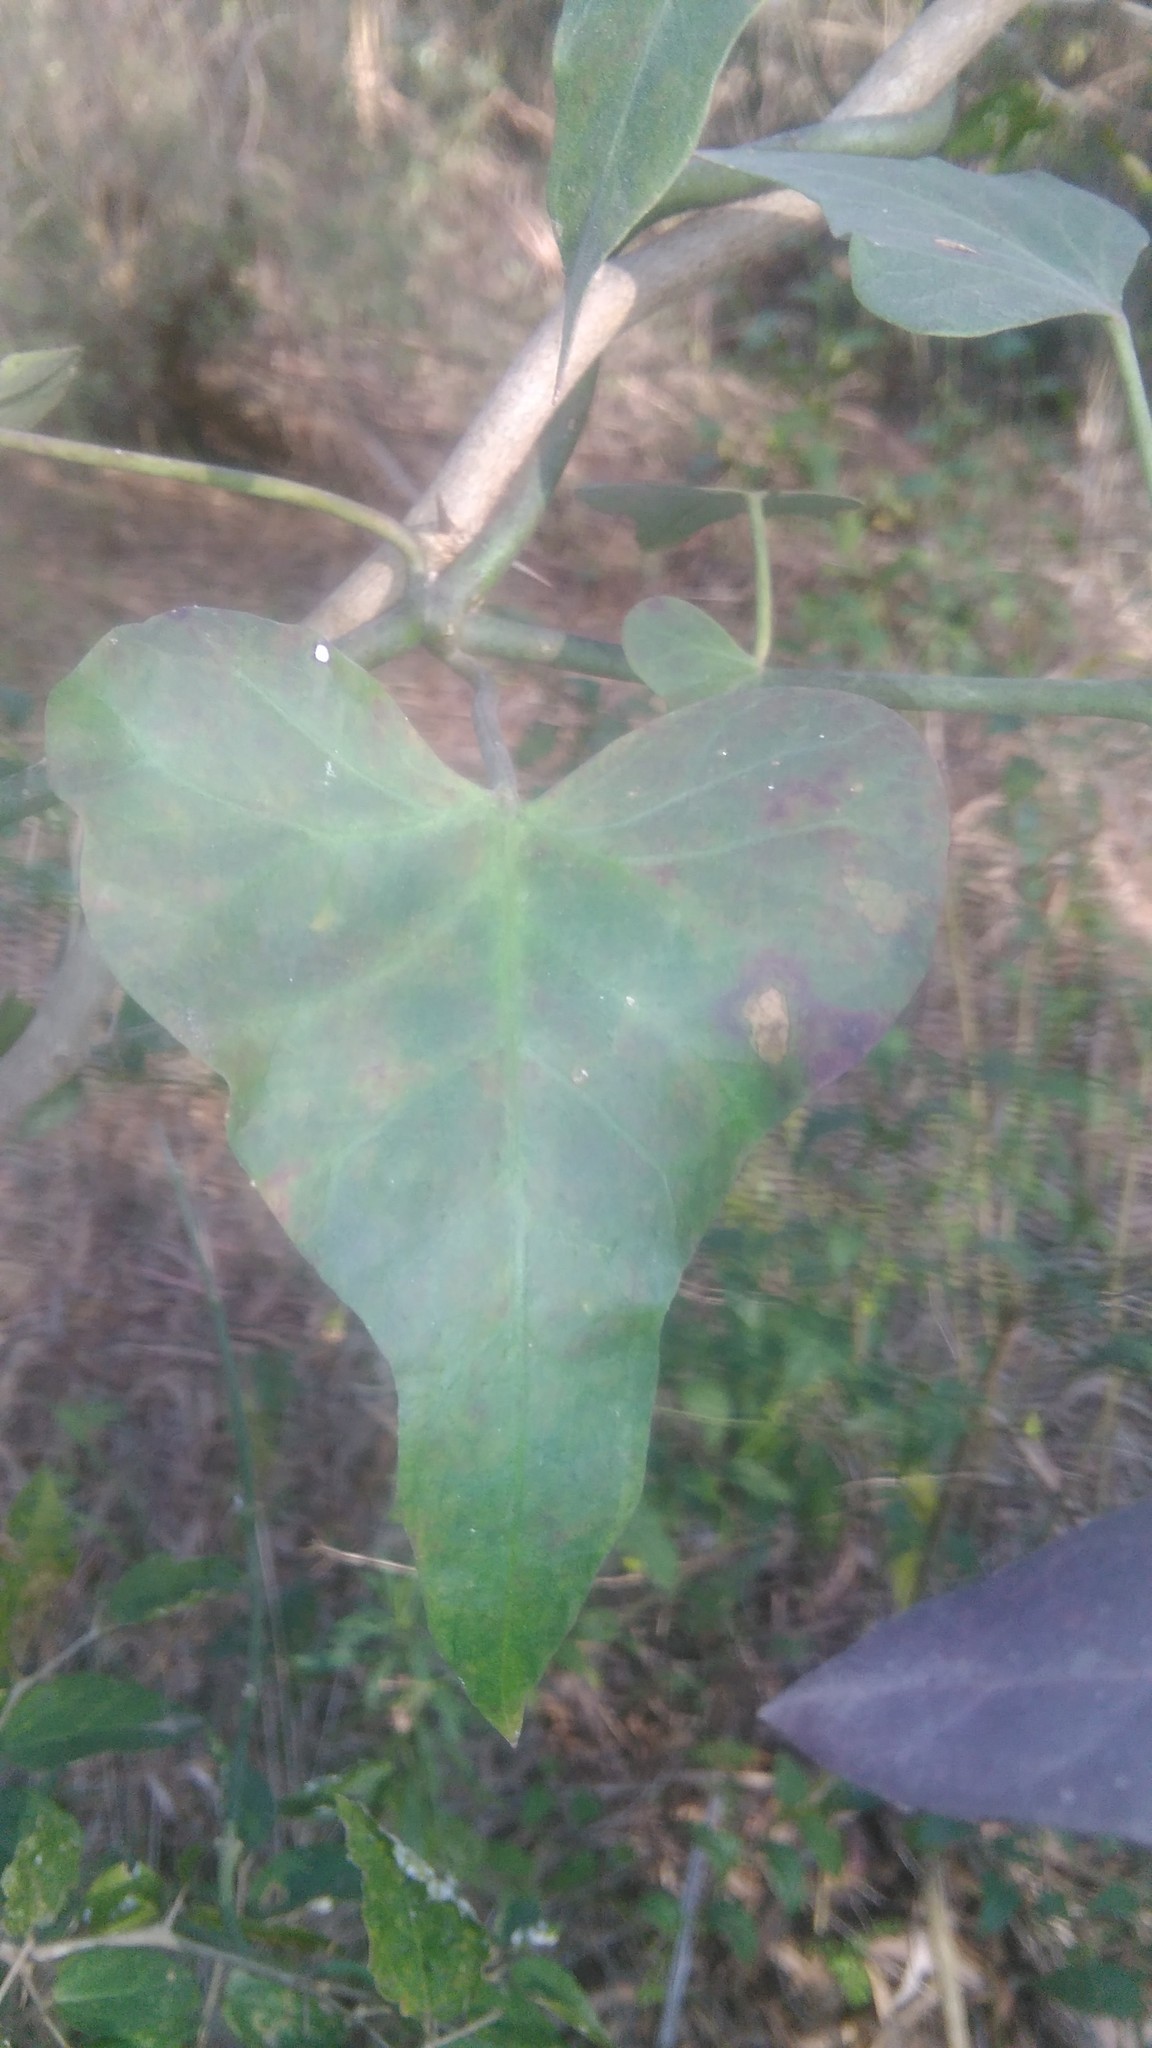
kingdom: Plantae
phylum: Tracheophyta
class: Magnoliopsida
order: Gentianales
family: Apocynaceae
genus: Araujia
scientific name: Araujia odorata
